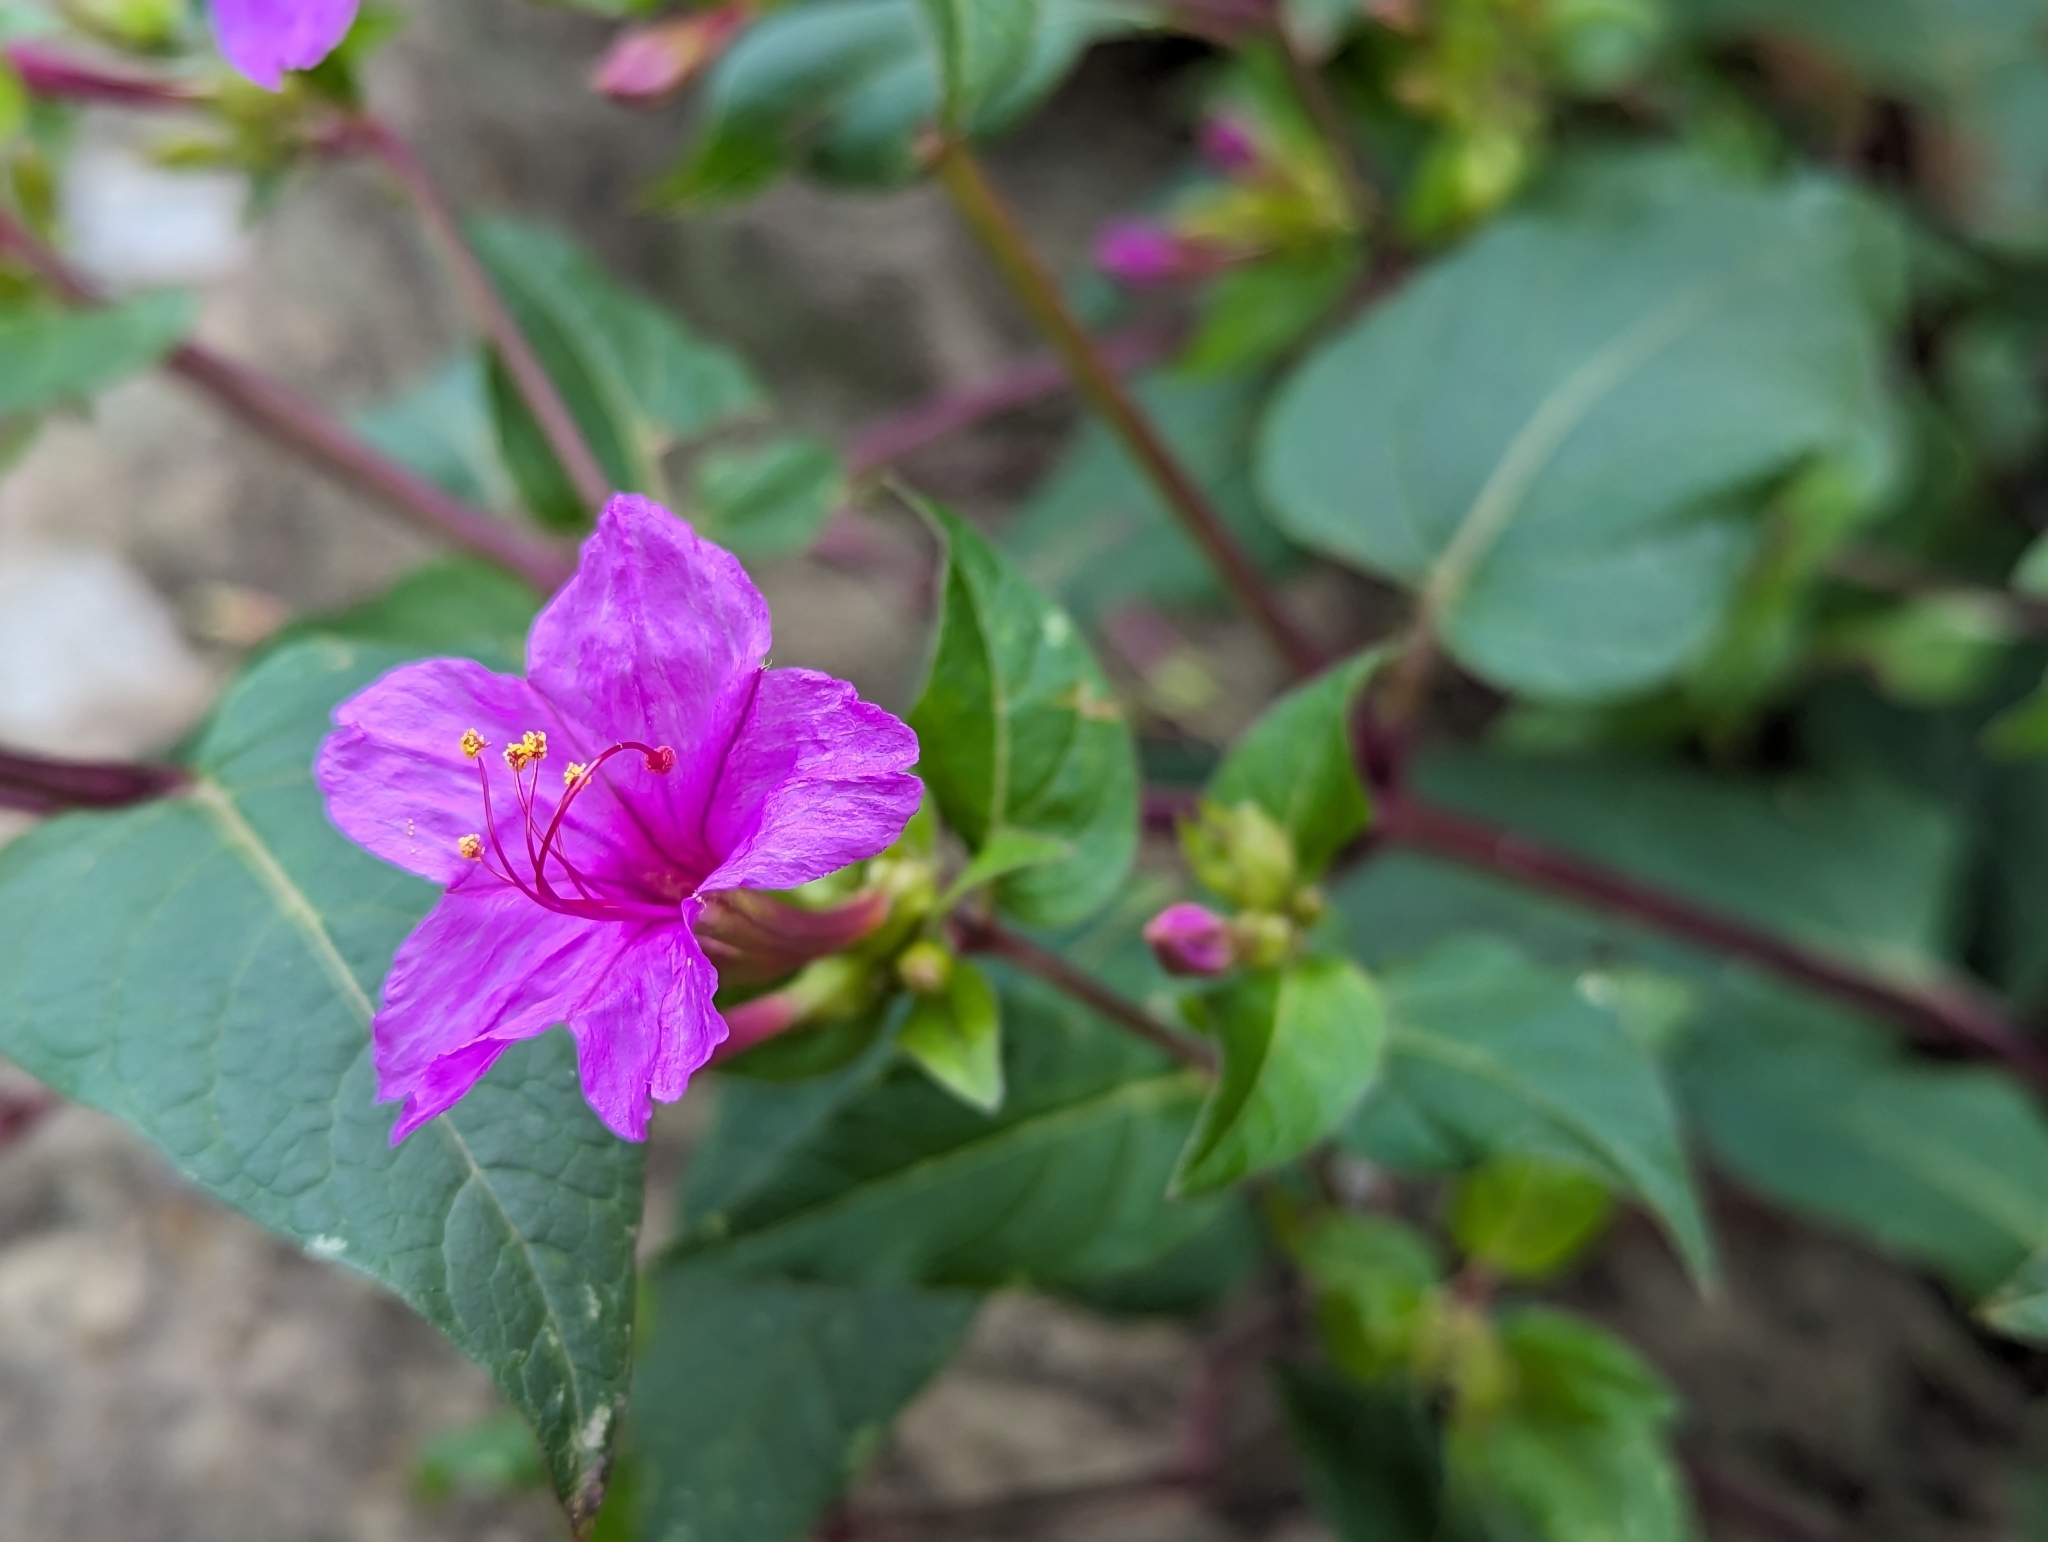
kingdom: Plantae
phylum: Tracheophyta
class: Magnoliopsida
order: Caryophyllales
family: Nyctaginaceae
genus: Mirabilis
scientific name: Mirabilis jalapa
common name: Marvel-of-peru
